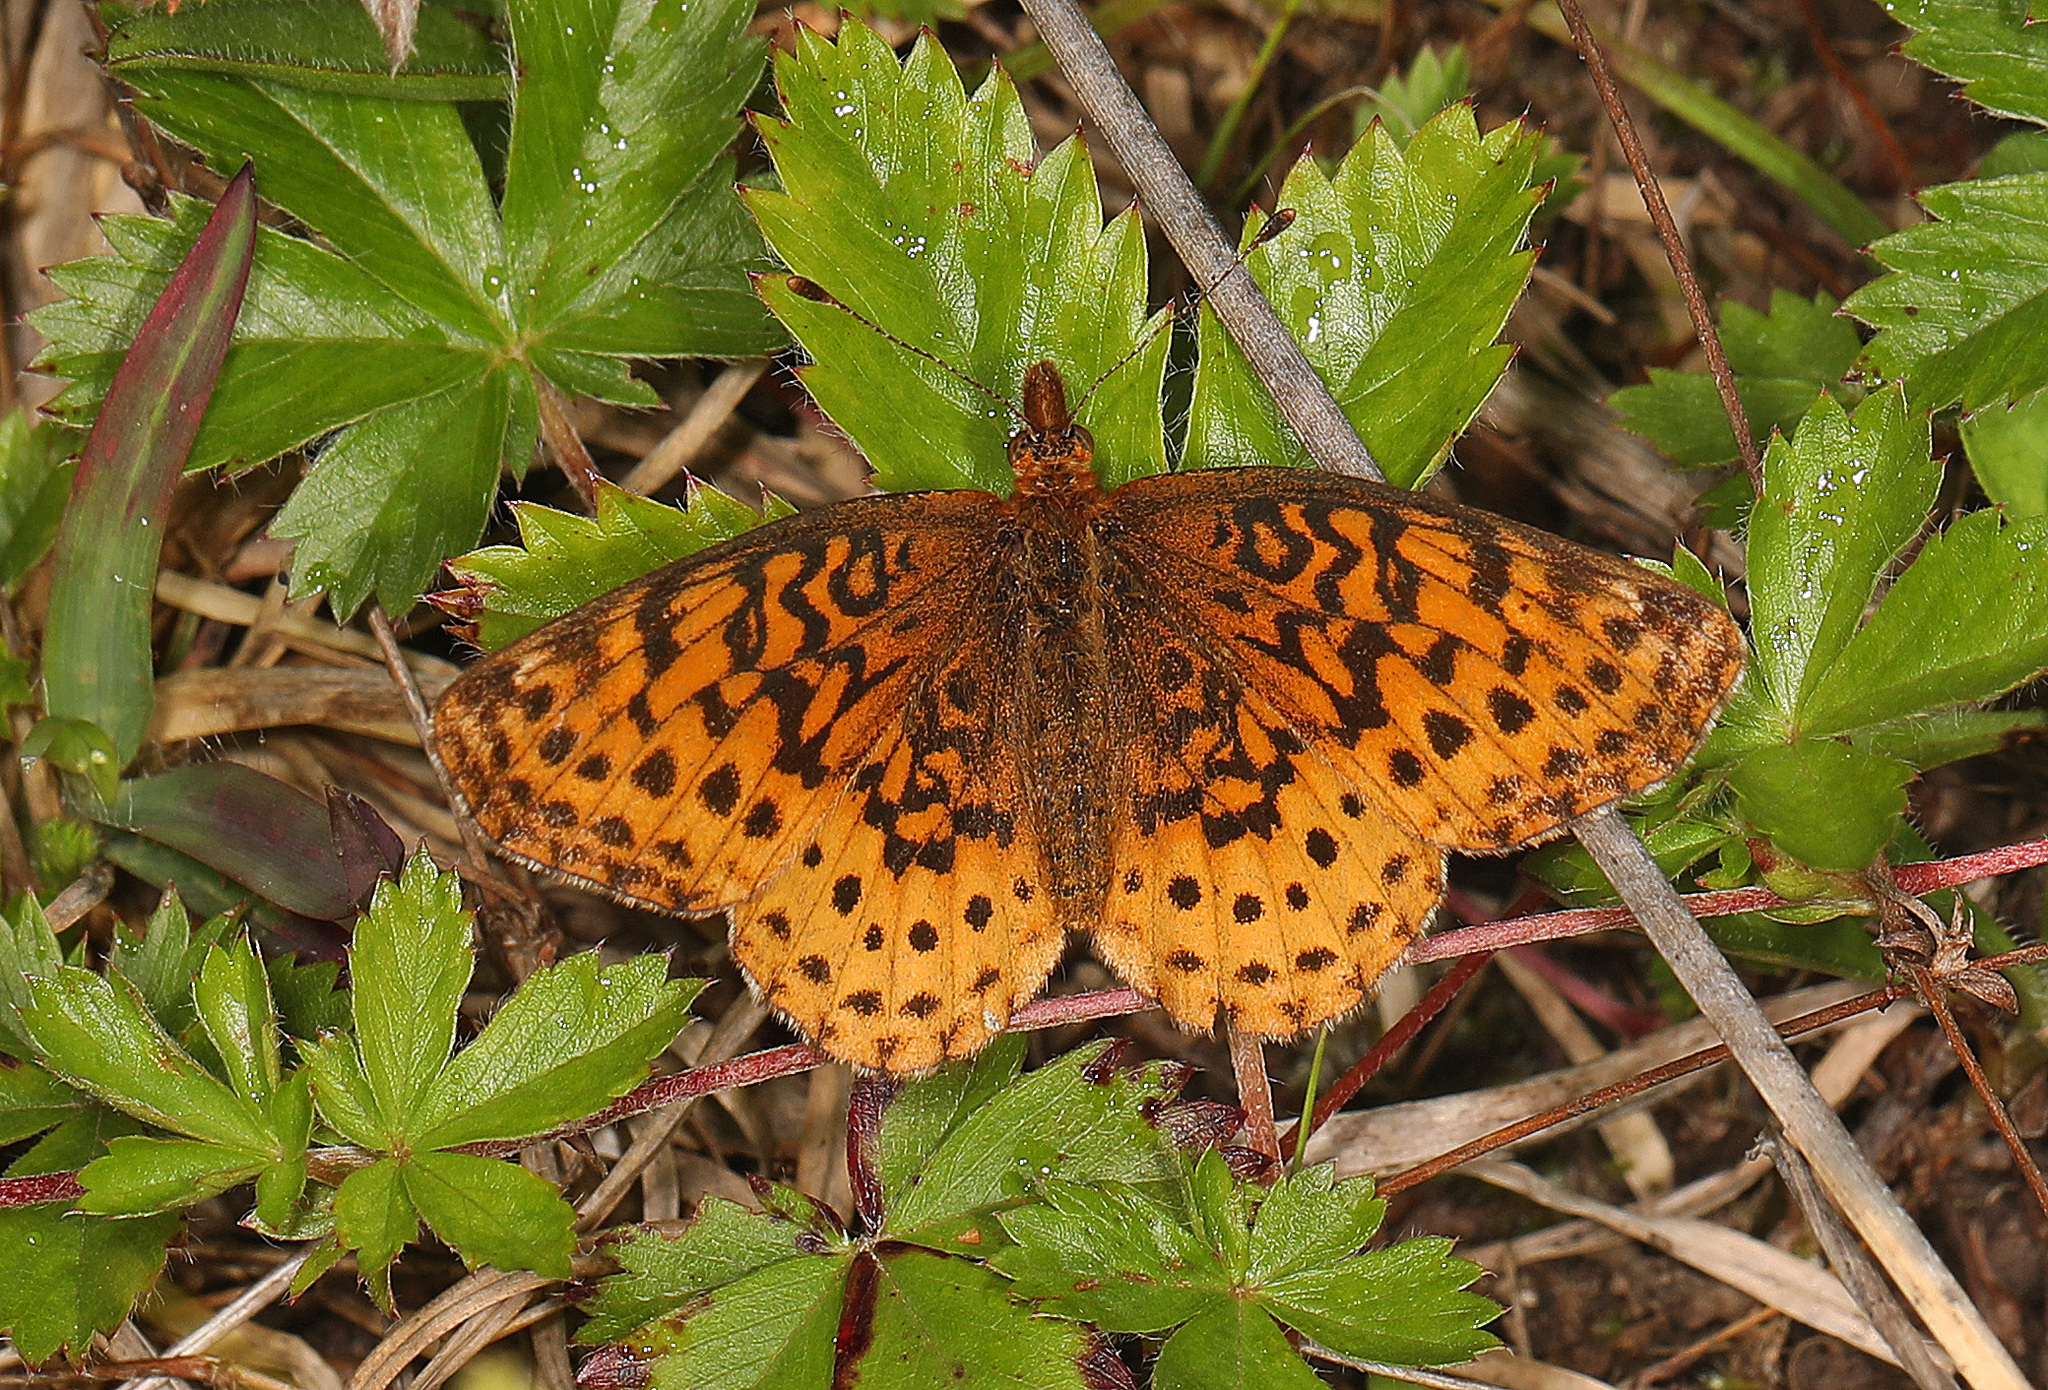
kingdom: Animalia
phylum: Arthropoda
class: Insecta
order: Lepidoptera
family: Nymphalidae
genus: Clossiana
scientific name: Clossiana toddi
